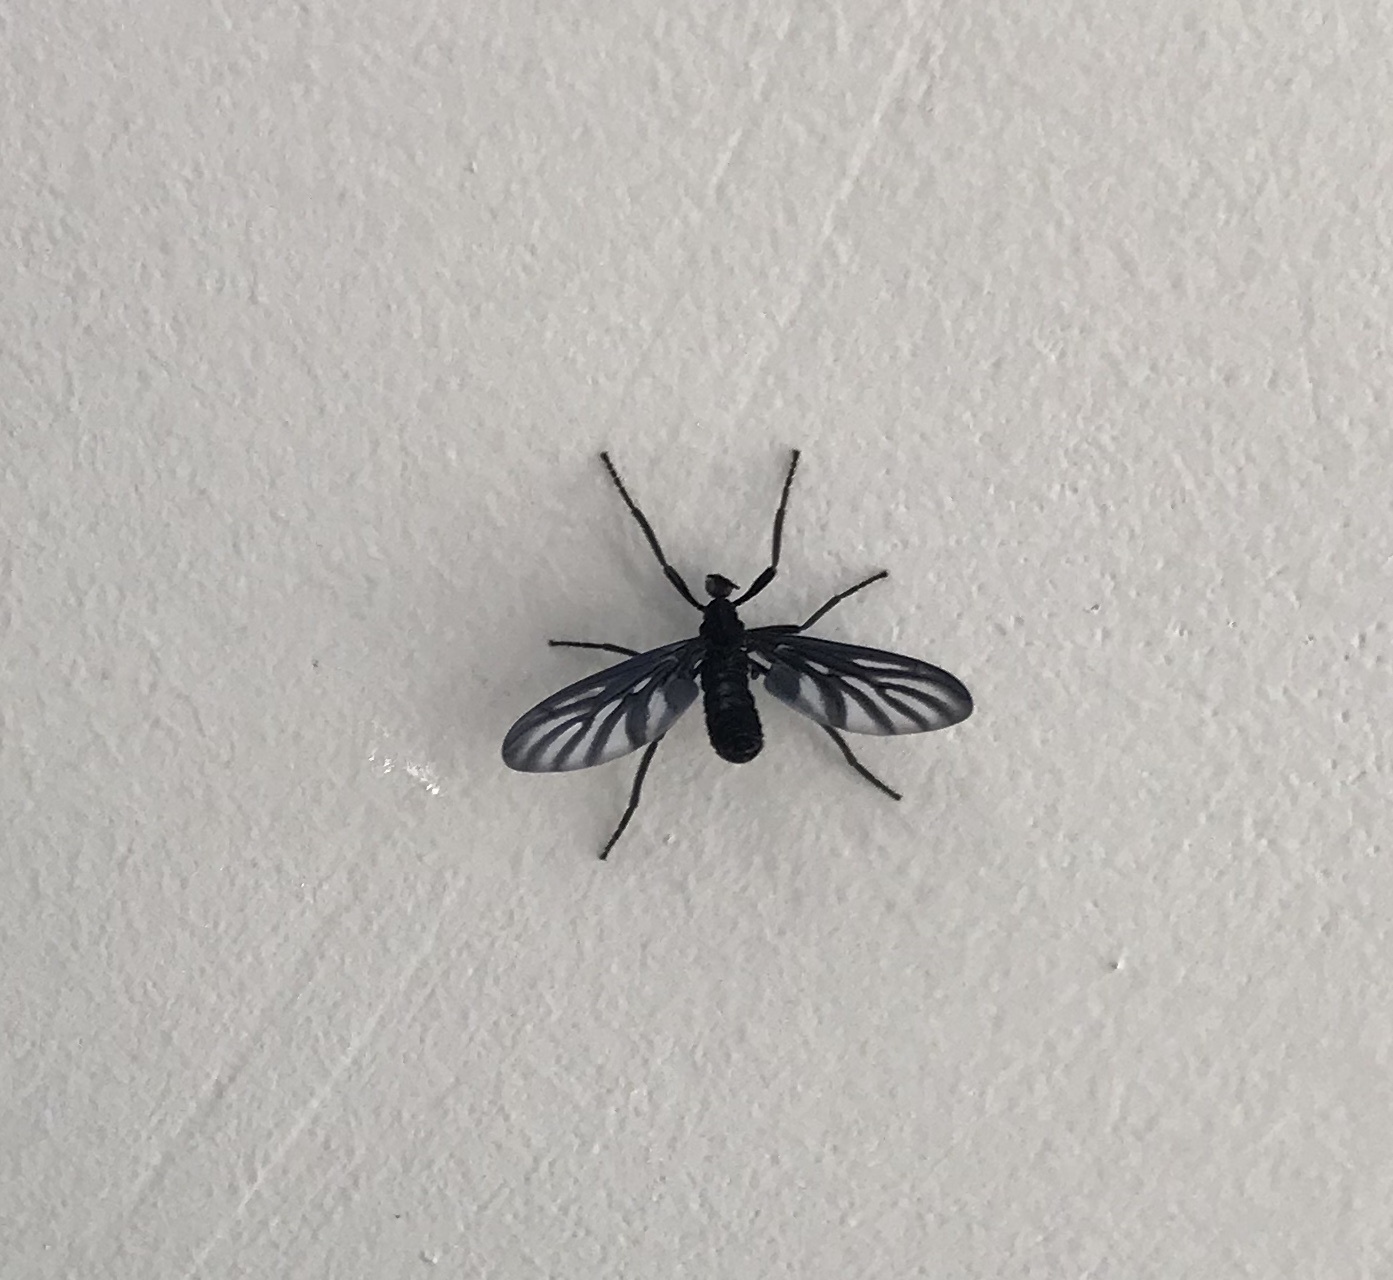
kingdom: Animalia
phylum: Arthropoda
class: Insecta
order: Diptera
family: Bibionidae
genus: Plecia
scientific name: Plecia plagiata
